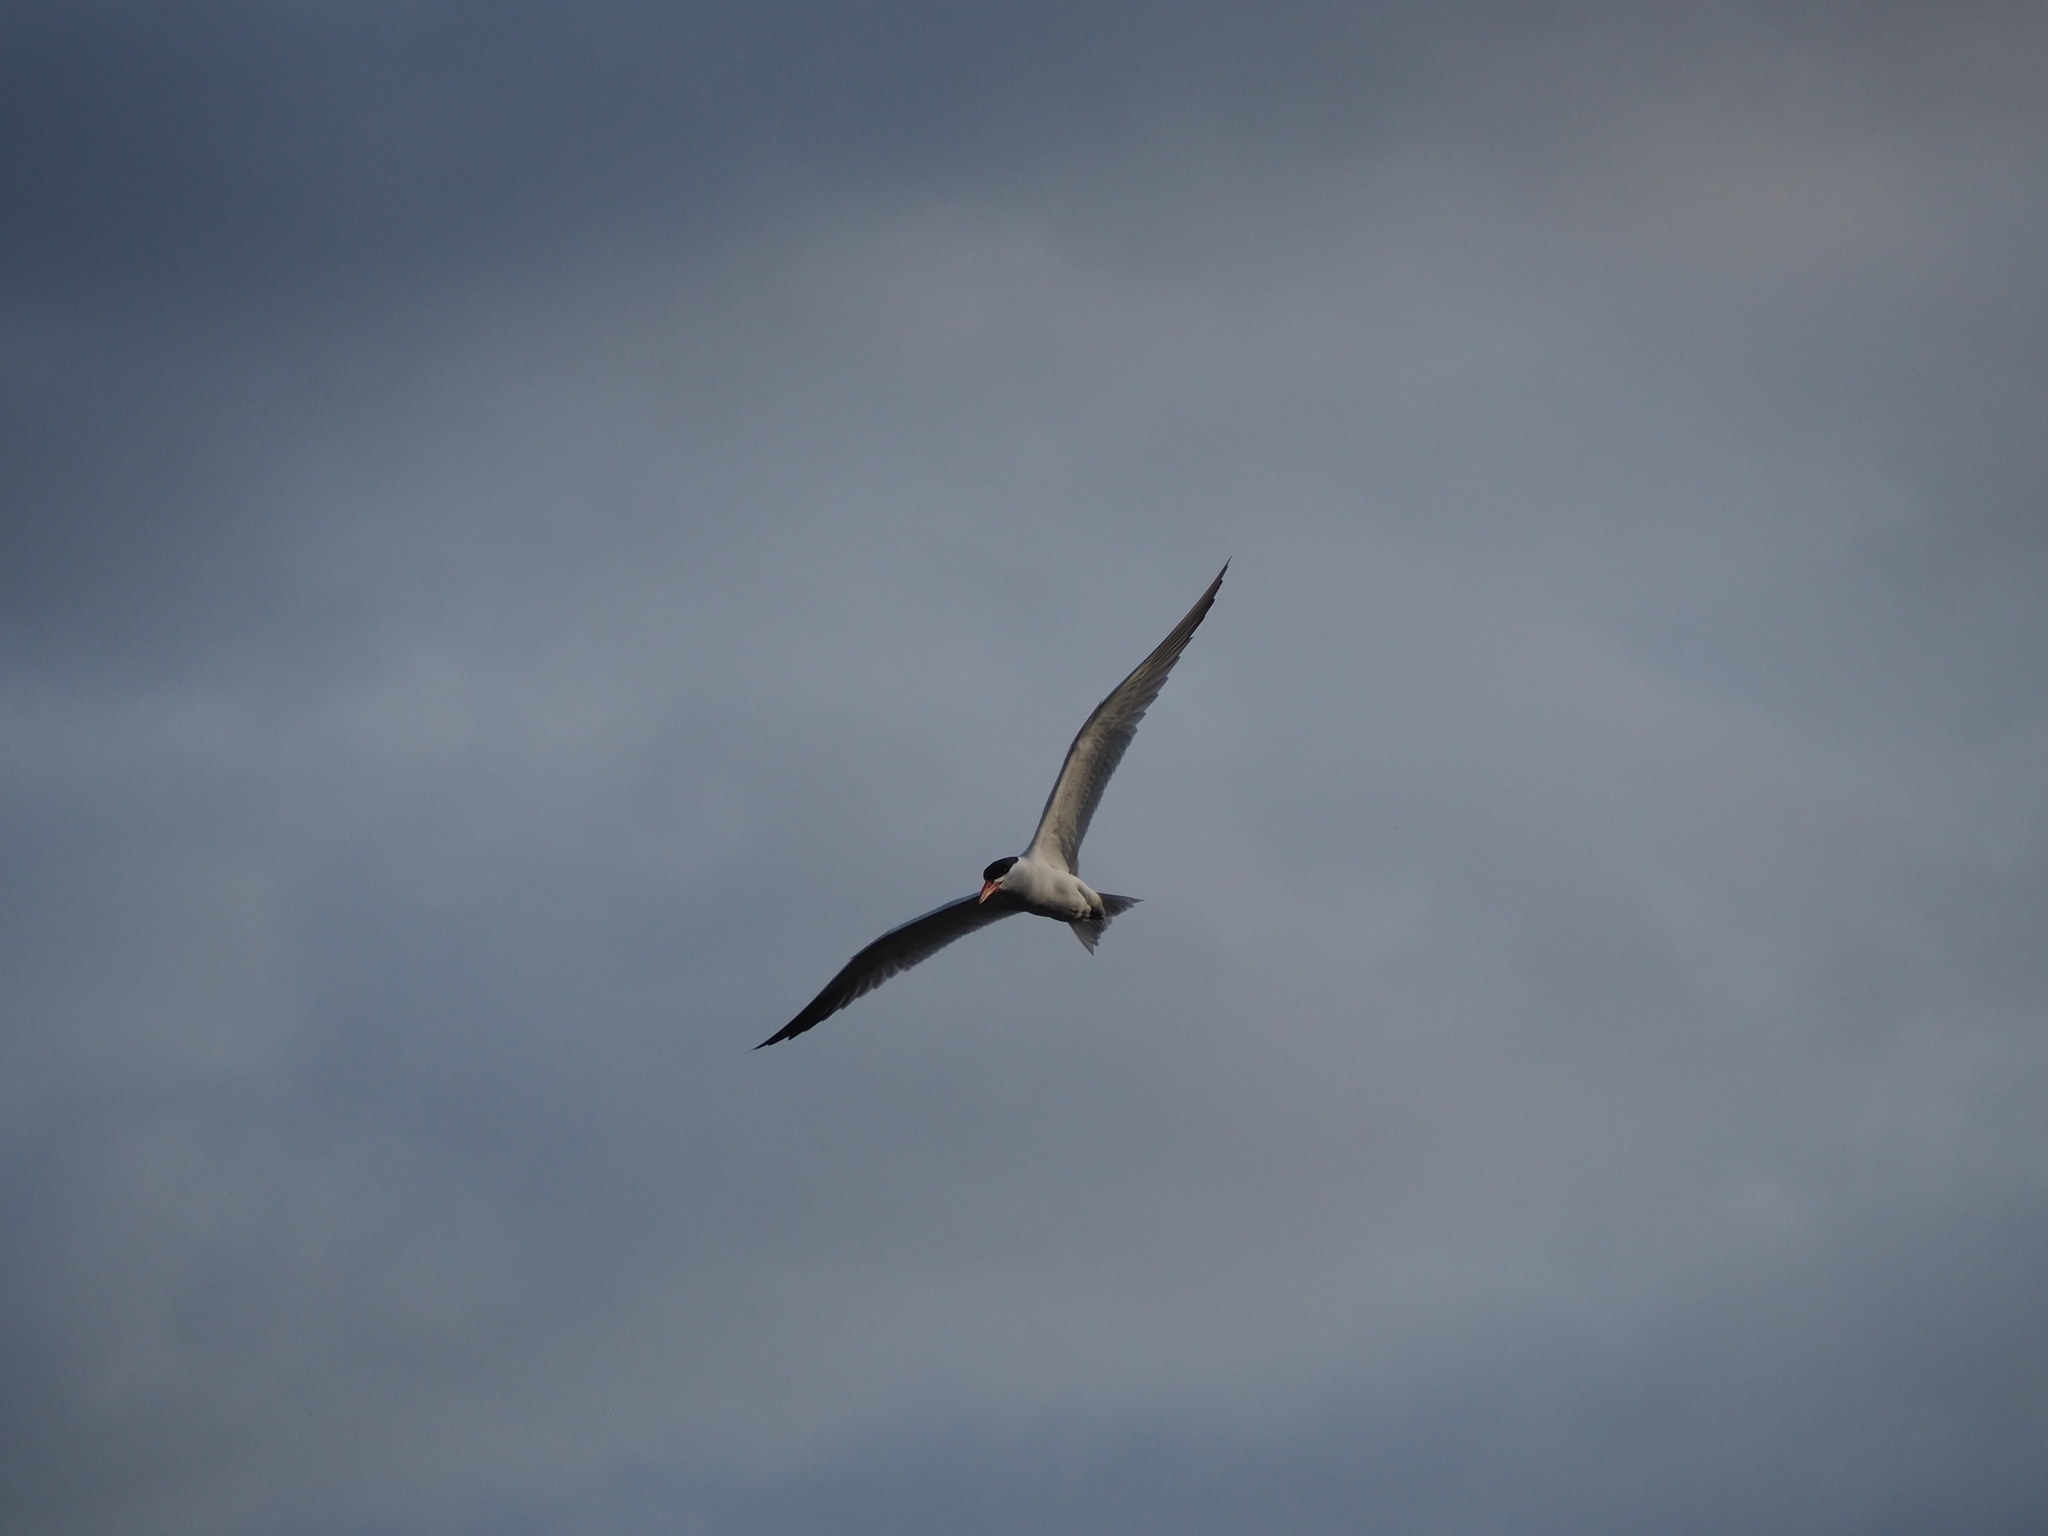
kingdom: Animalia
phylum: Chordata
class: Aves
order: Charadriiformes
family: Laridae
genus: Hydroprogne
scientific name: Hydroprogne caspia
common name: Caspian tern
